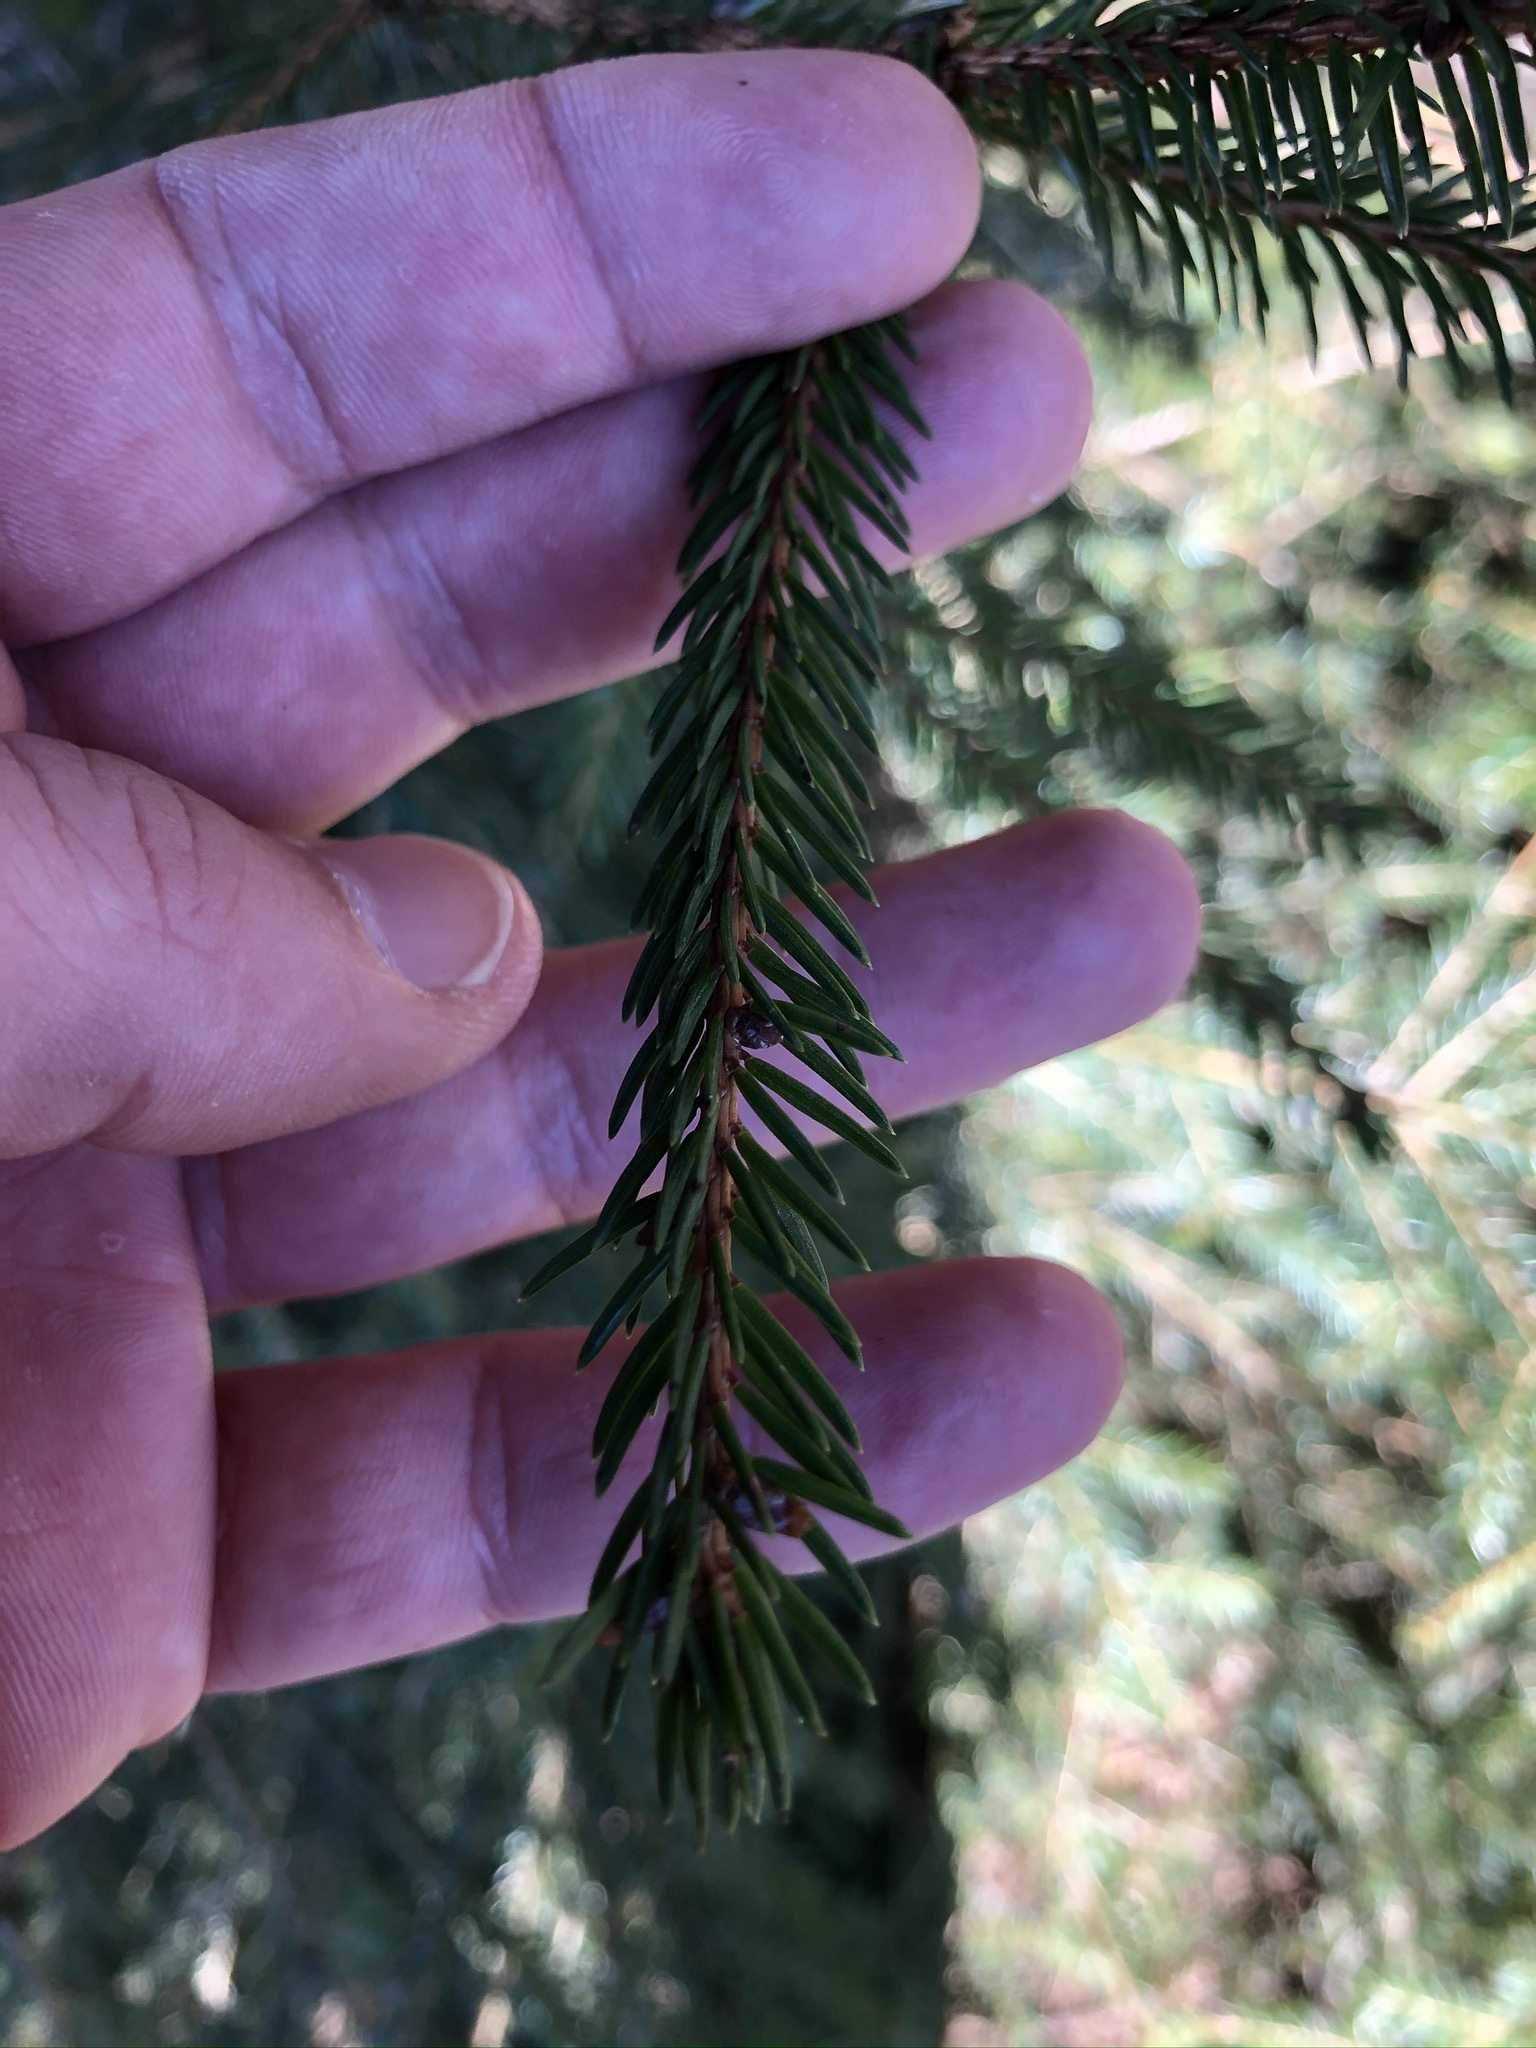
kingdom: Plantae
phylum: Tracheophyta
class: Pinopsida
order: Pinales
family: Pinaceae
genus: Picea
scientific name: Picea abies
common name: Norway spruce
